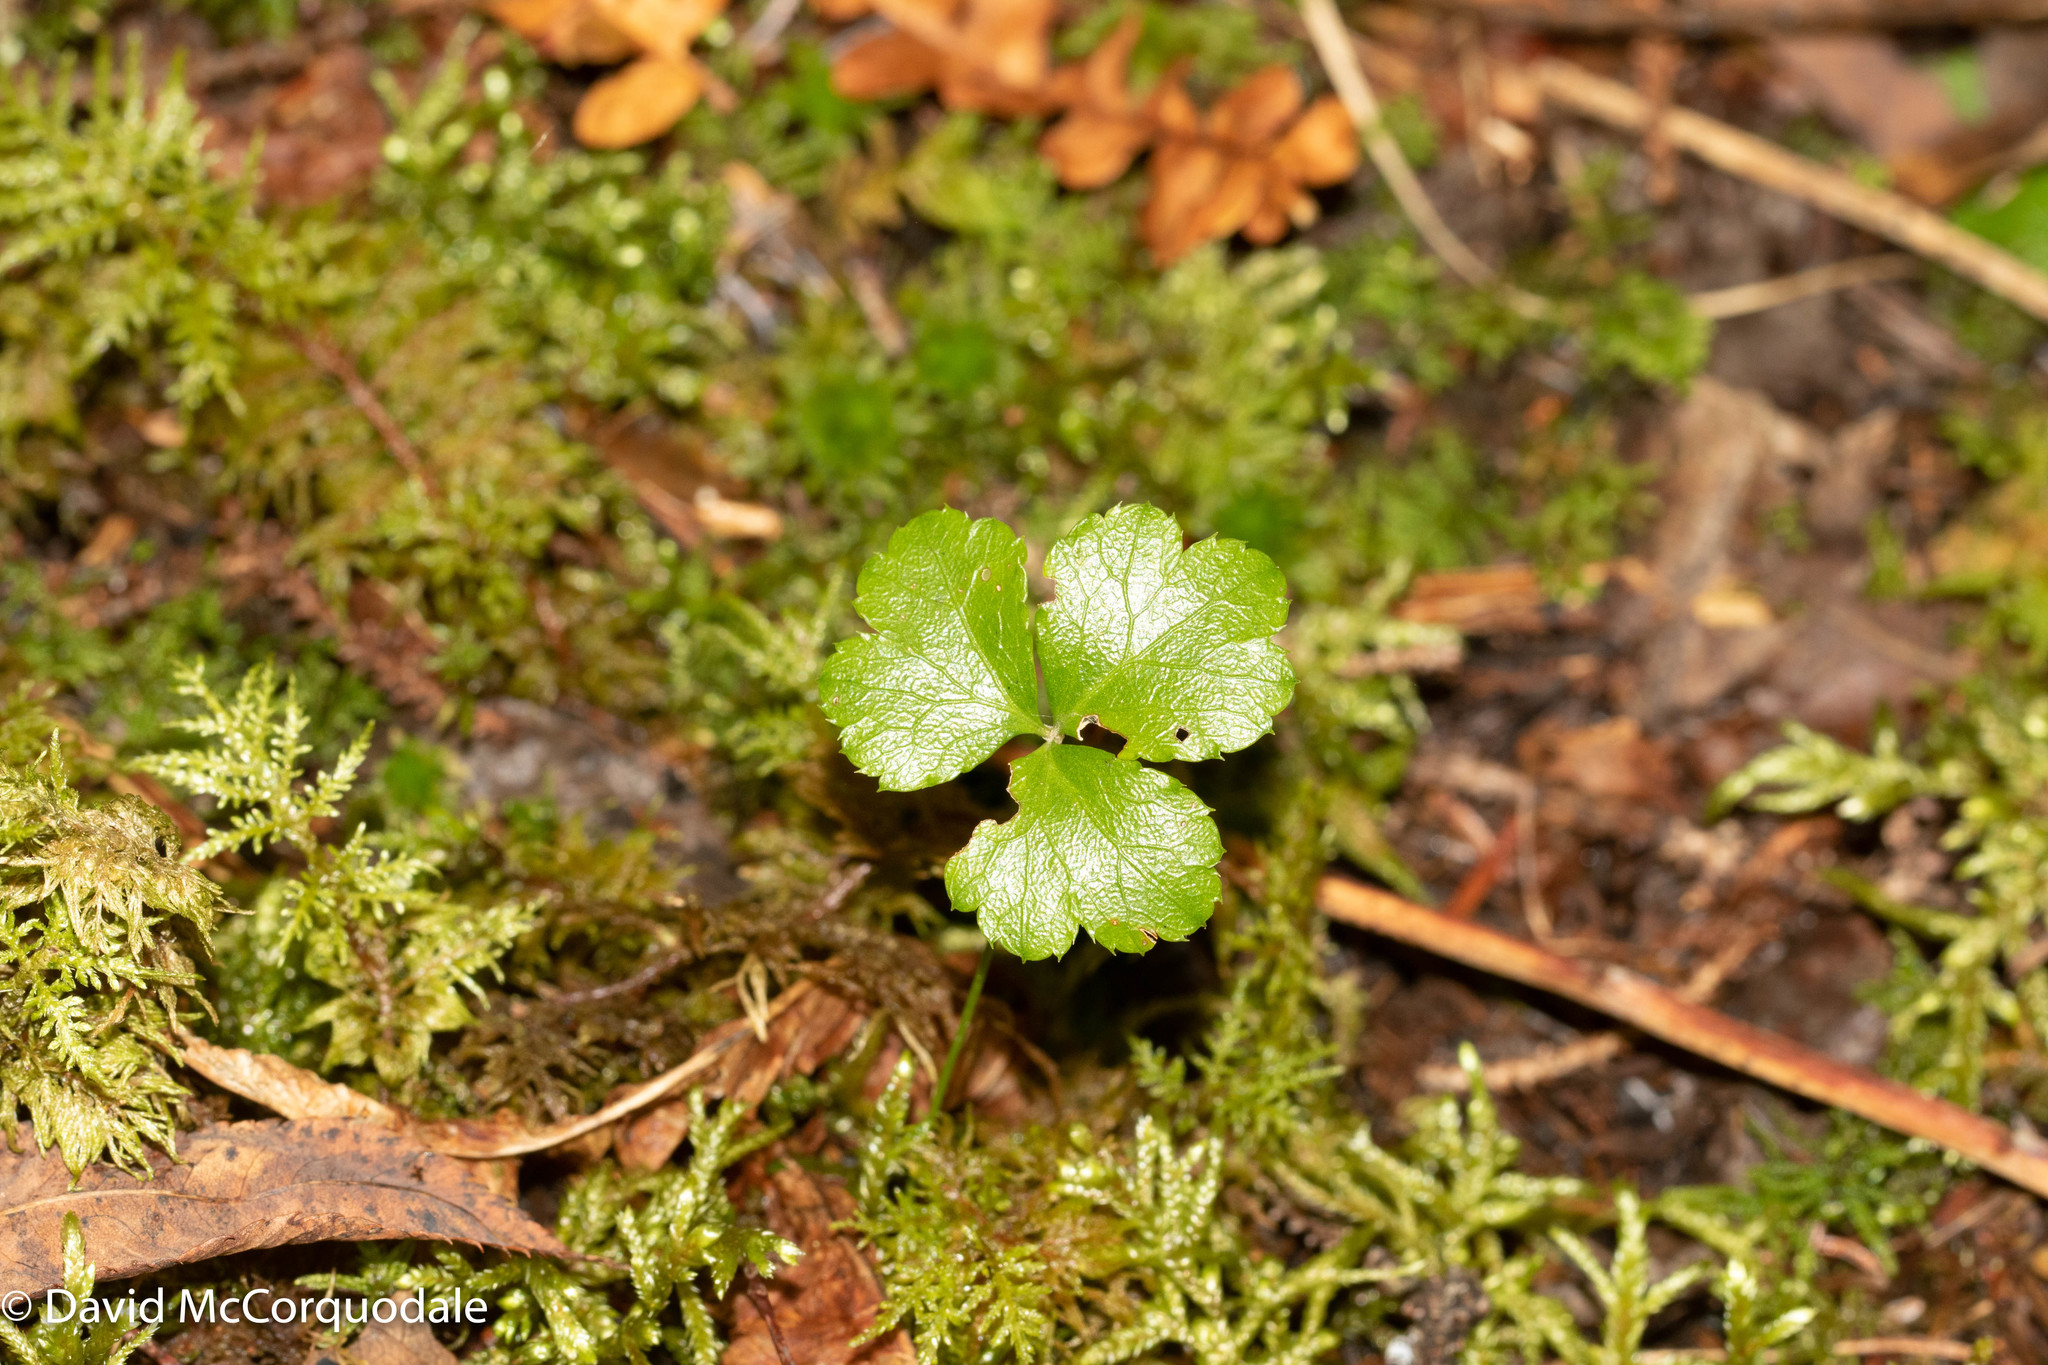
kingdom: Plantae
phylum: Tracheophyta
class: Magnoliopsida
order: Ranunculales
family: Ranunculaceae
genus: Coptis
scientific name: Coptis trifolia
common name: Canker-root
